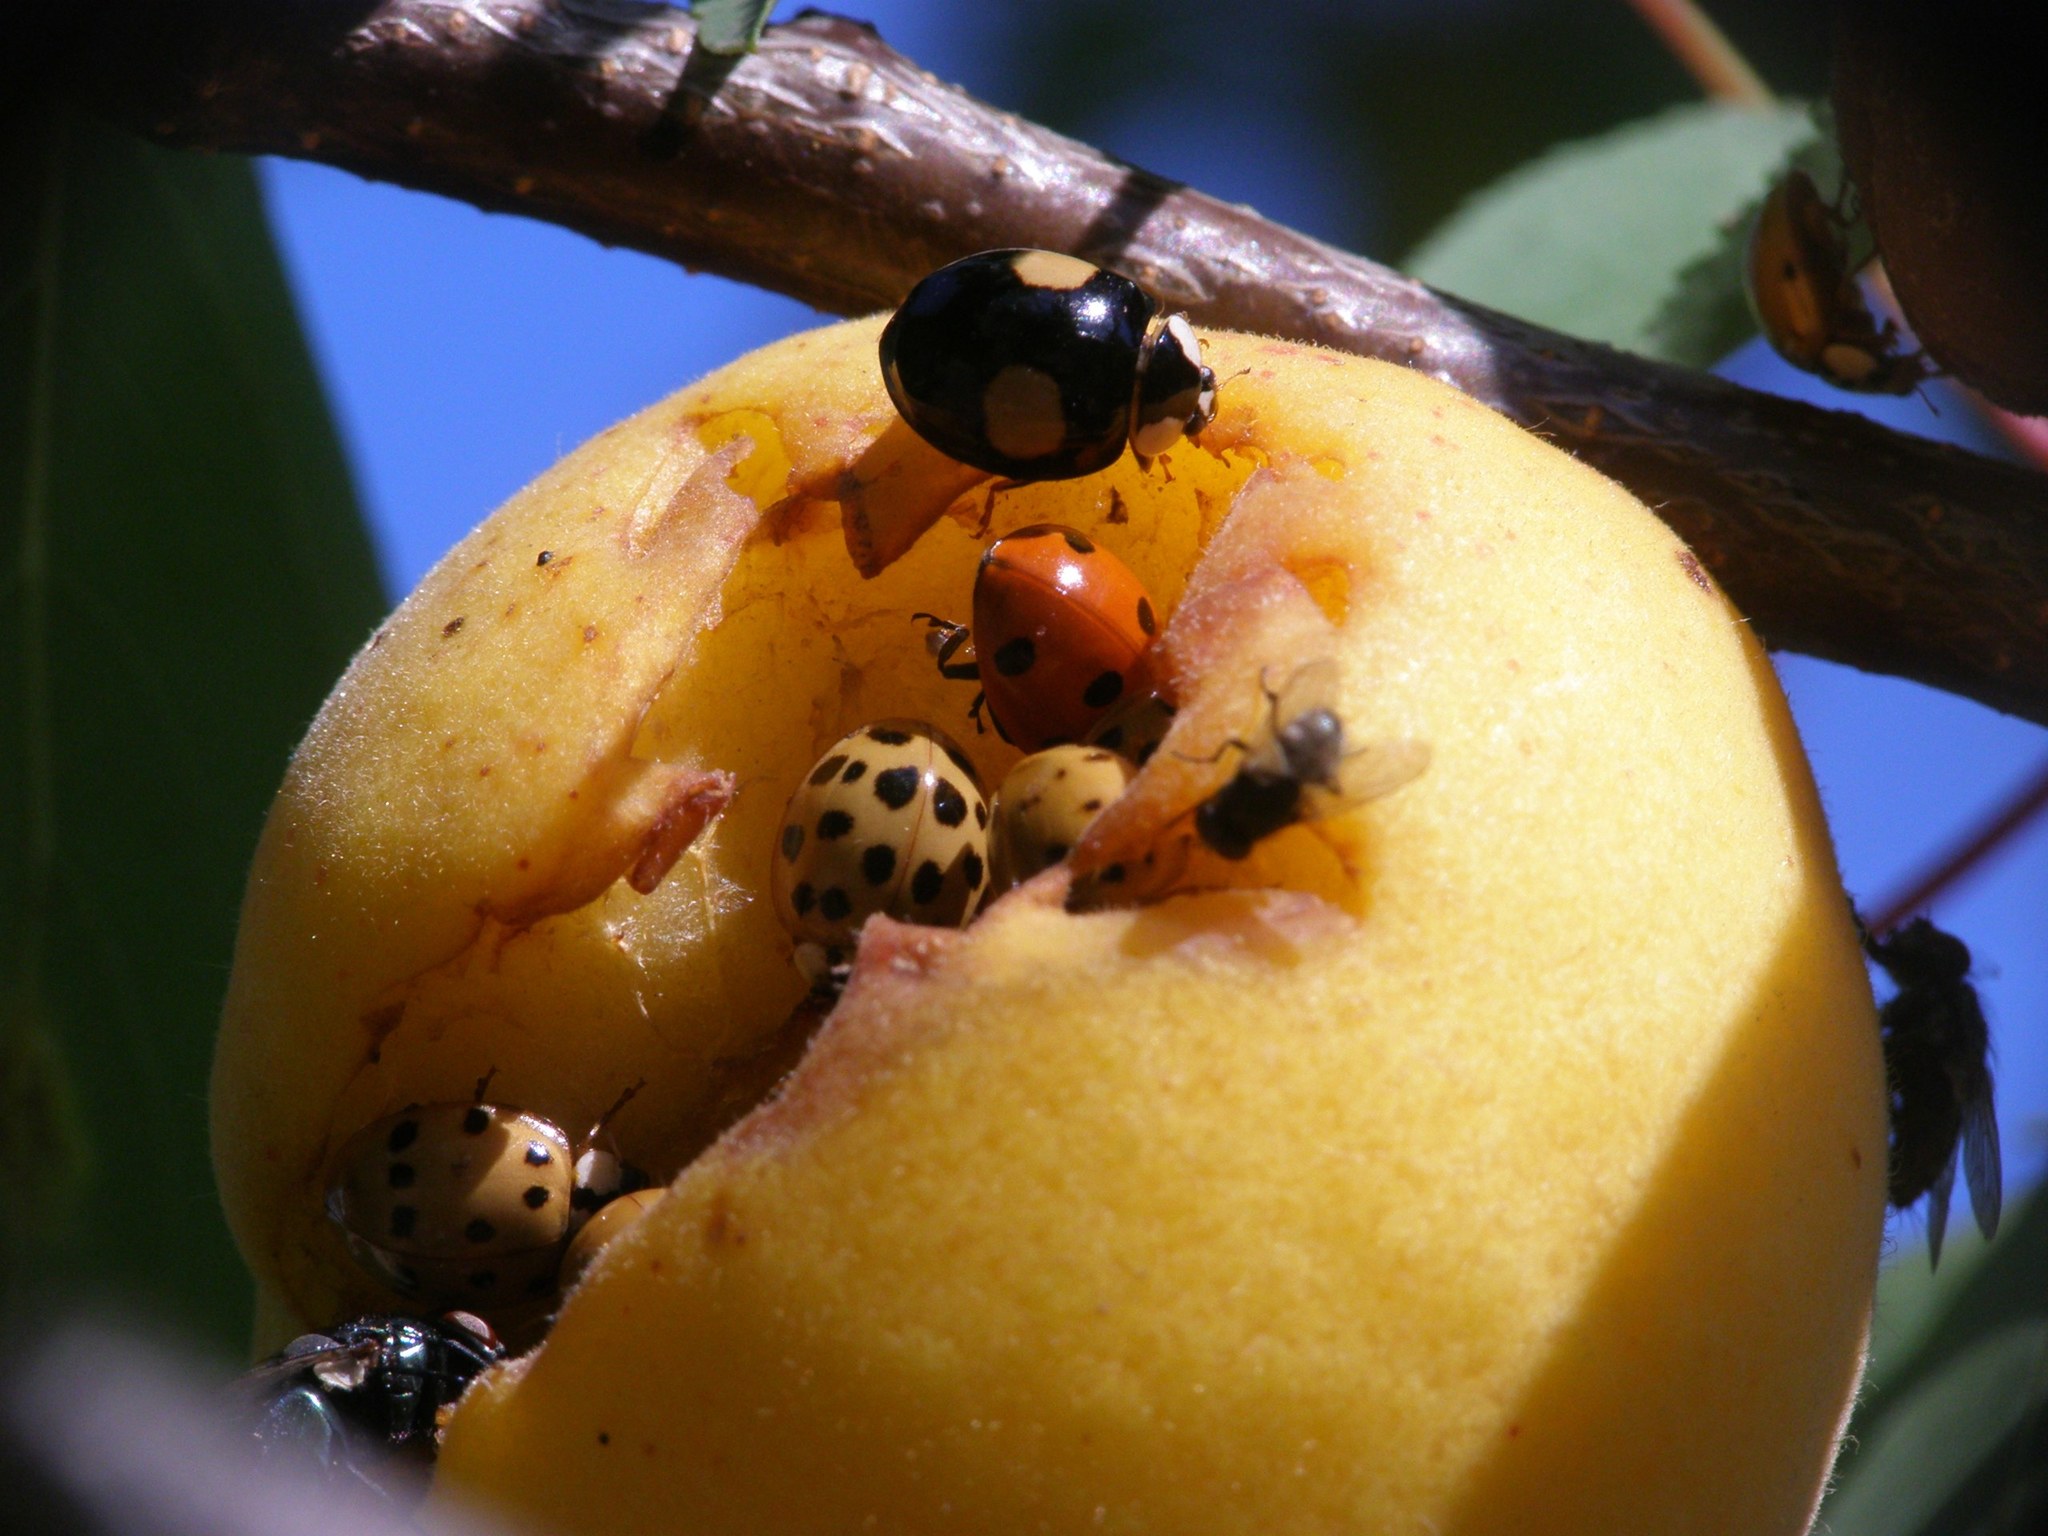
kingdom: Animalia
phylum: Arthropoda
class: Insecta
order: Coleoptera
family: Coccinellidae
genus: Harmonia
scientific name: Harmonia axyridis
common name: Harlequin ladybird
